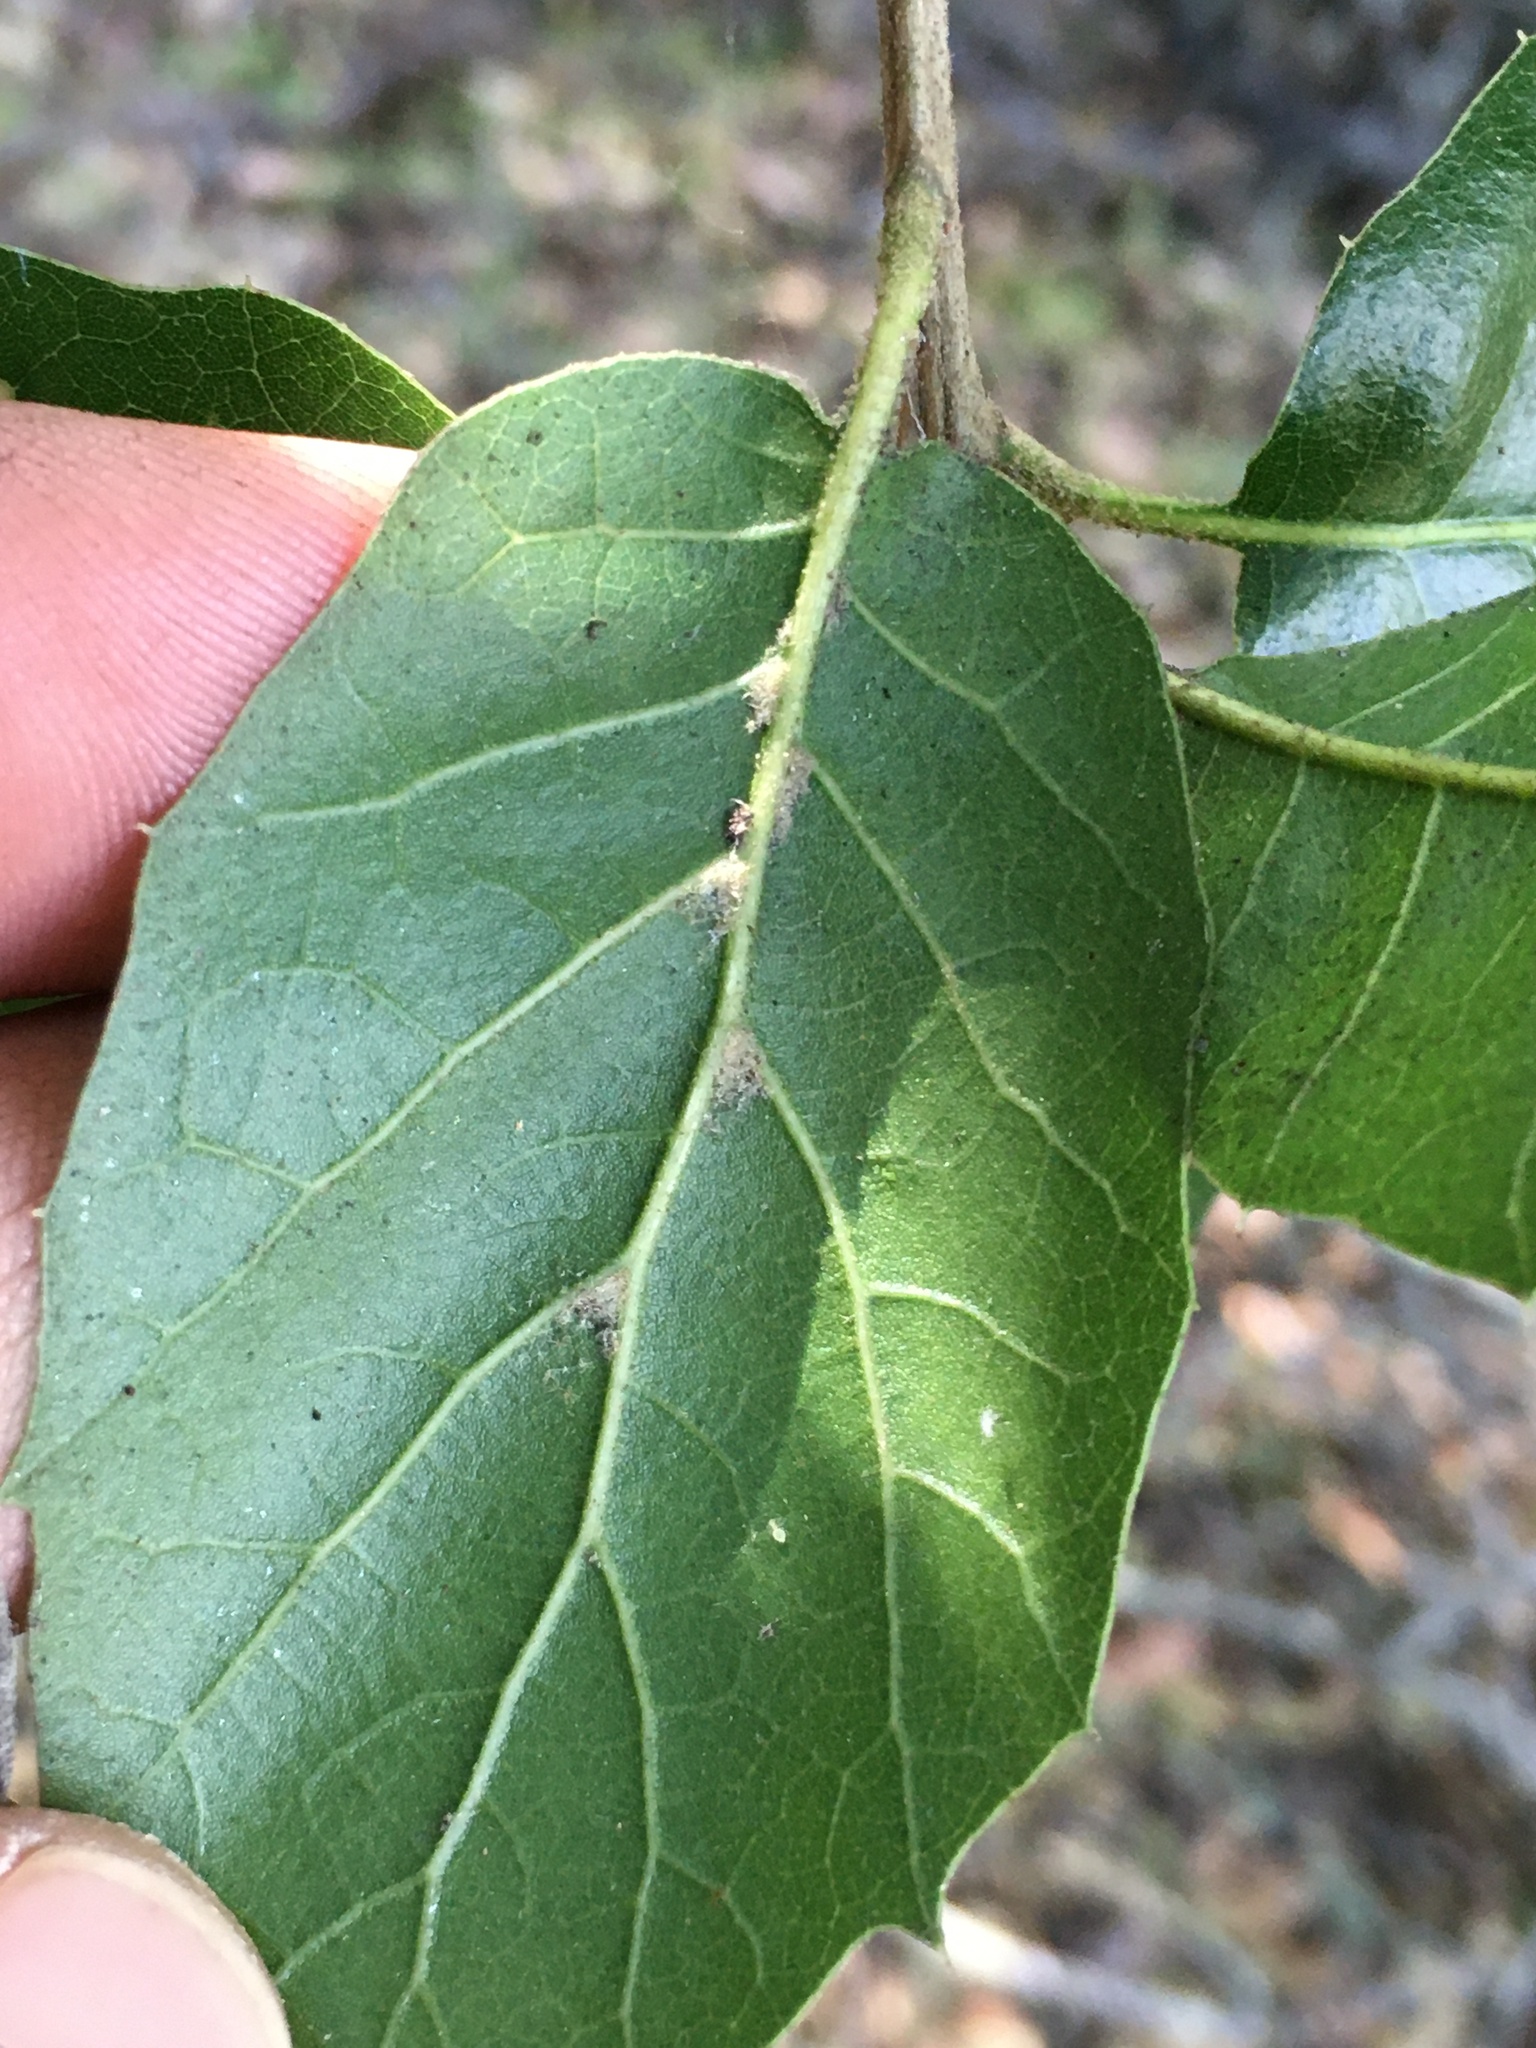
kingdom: Plantae
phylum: Tracheophyta
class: Magnoliopsida
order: Fagales
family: Fagaceae
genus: Quercus
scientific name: Quercus agrifolia
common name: California live oak
